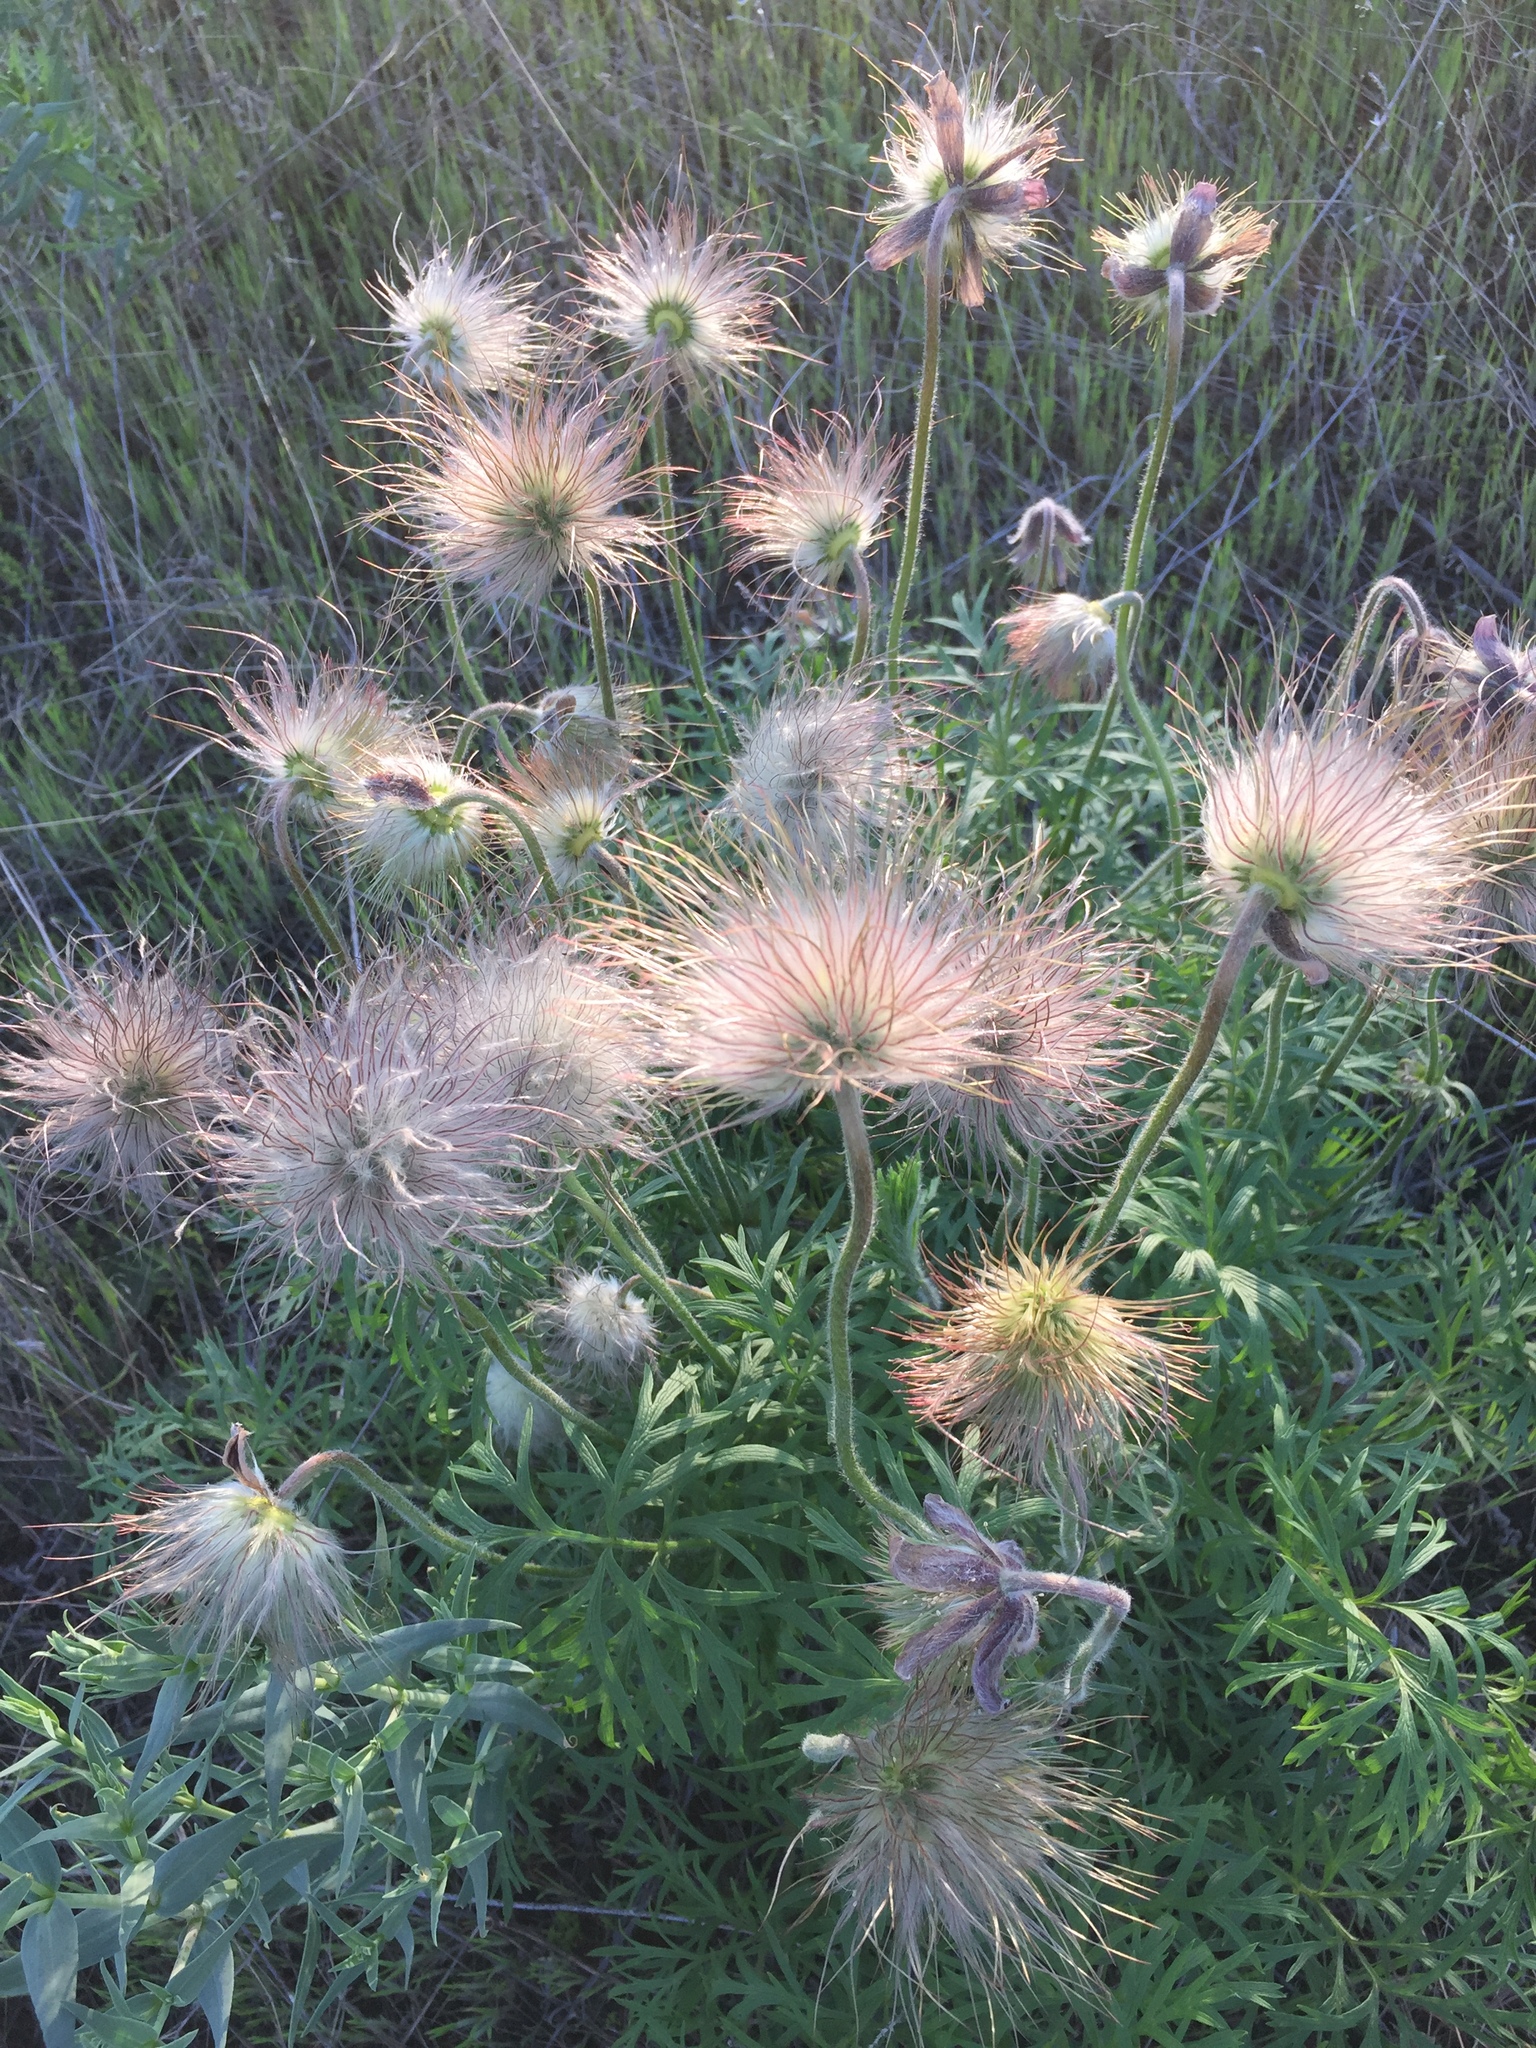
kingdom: Plantae
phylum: Tracheophyta
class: Magnoliopsida
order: Ranunculales
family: Ranunculaceae
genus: Pulsatilla
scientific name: Pulsatilla pratensis
